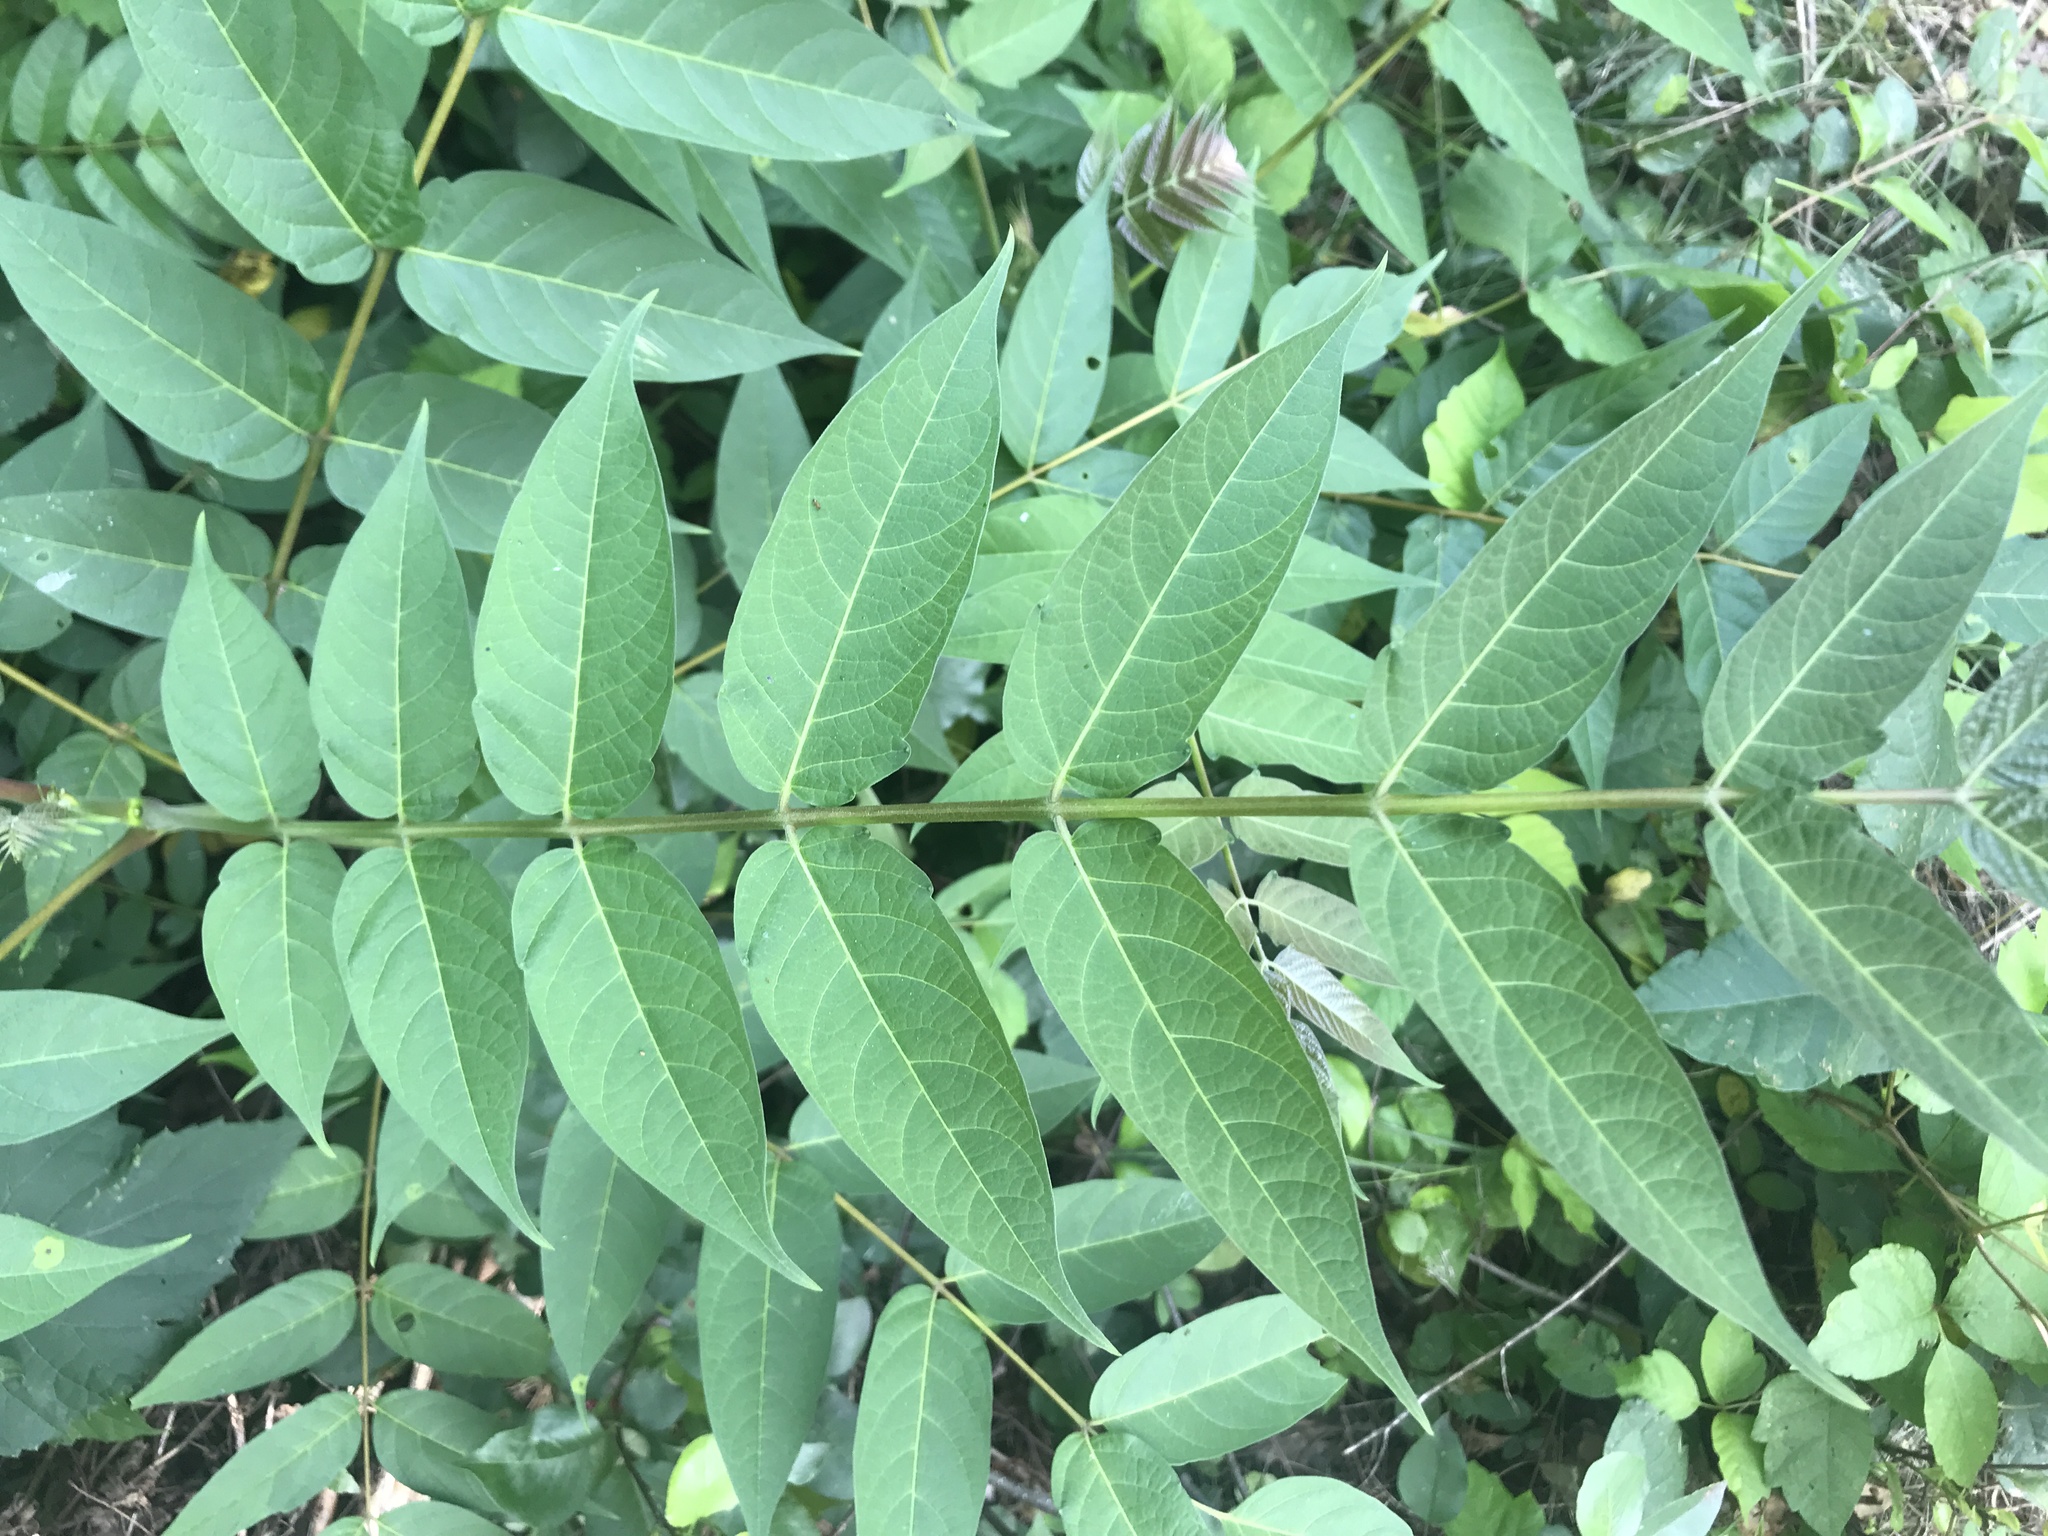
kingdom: Plantae
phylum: Tracheophyta
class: Magnoliopsida
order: Sapindales
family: Simaroubaceae
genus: Ailanthus
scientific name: Ailanthus altissima
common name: Tree-of-heaven
